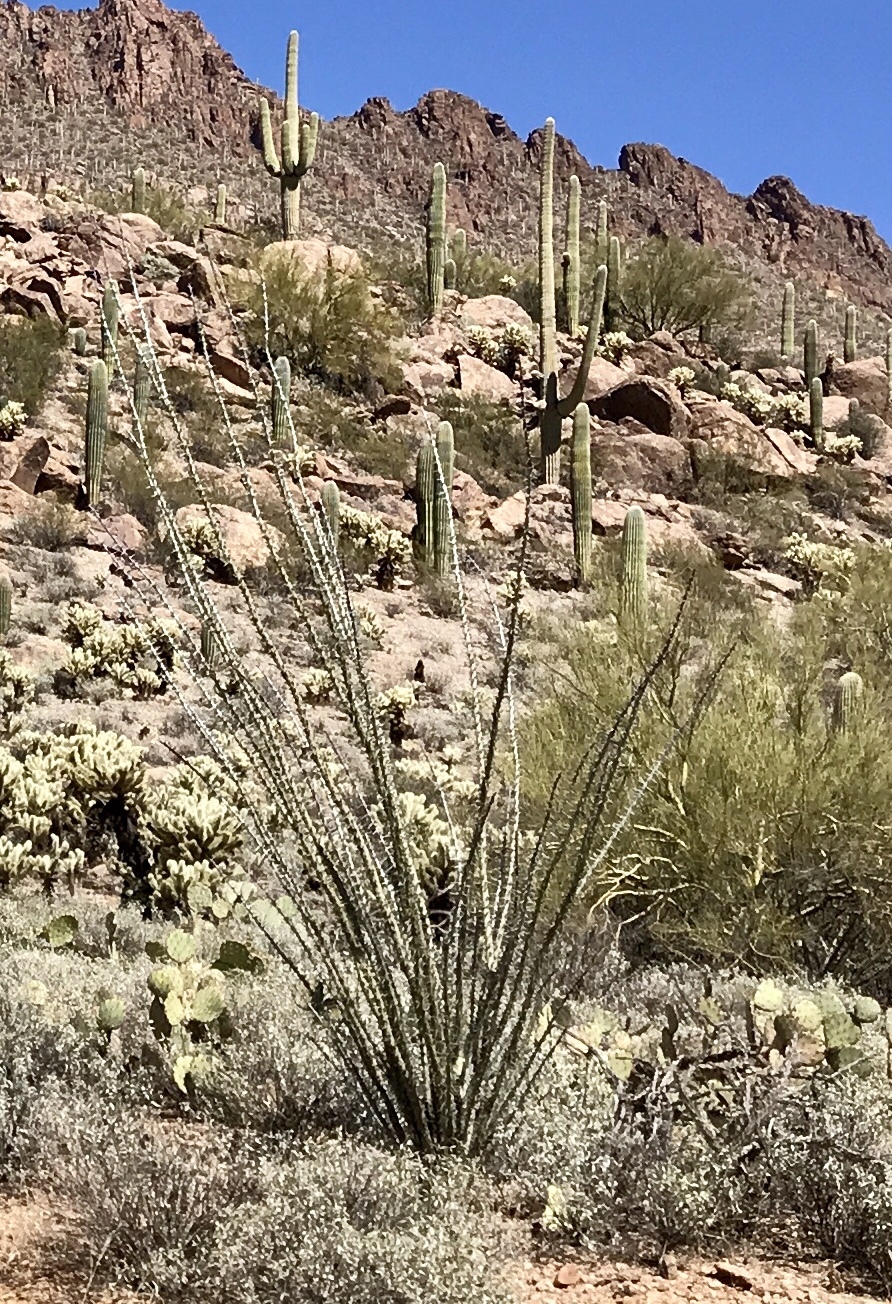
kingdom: Plantae
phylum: Tracheophyta
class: Magnoliopsida
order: Ericales
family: Fouquieriaceae
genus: Fouquieria
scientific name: Fouquieria splendens
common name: Vine-cactus
